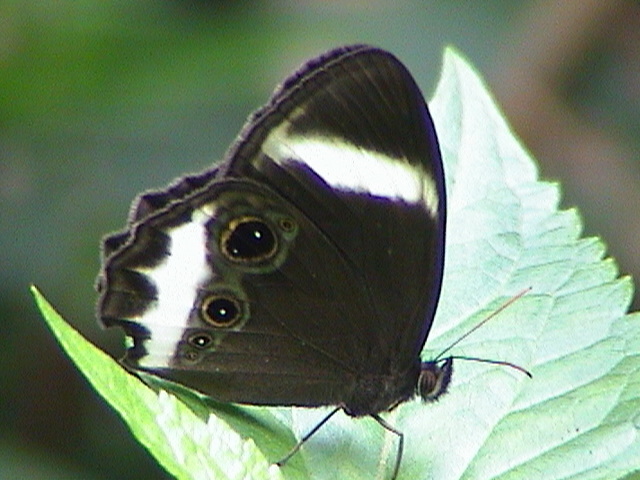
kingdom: Animalia
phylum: Arthropoda
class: Insecta
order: Lepidoptera
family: Nymphalidae
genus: Zipaetis
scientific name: Zipaetis saitis
